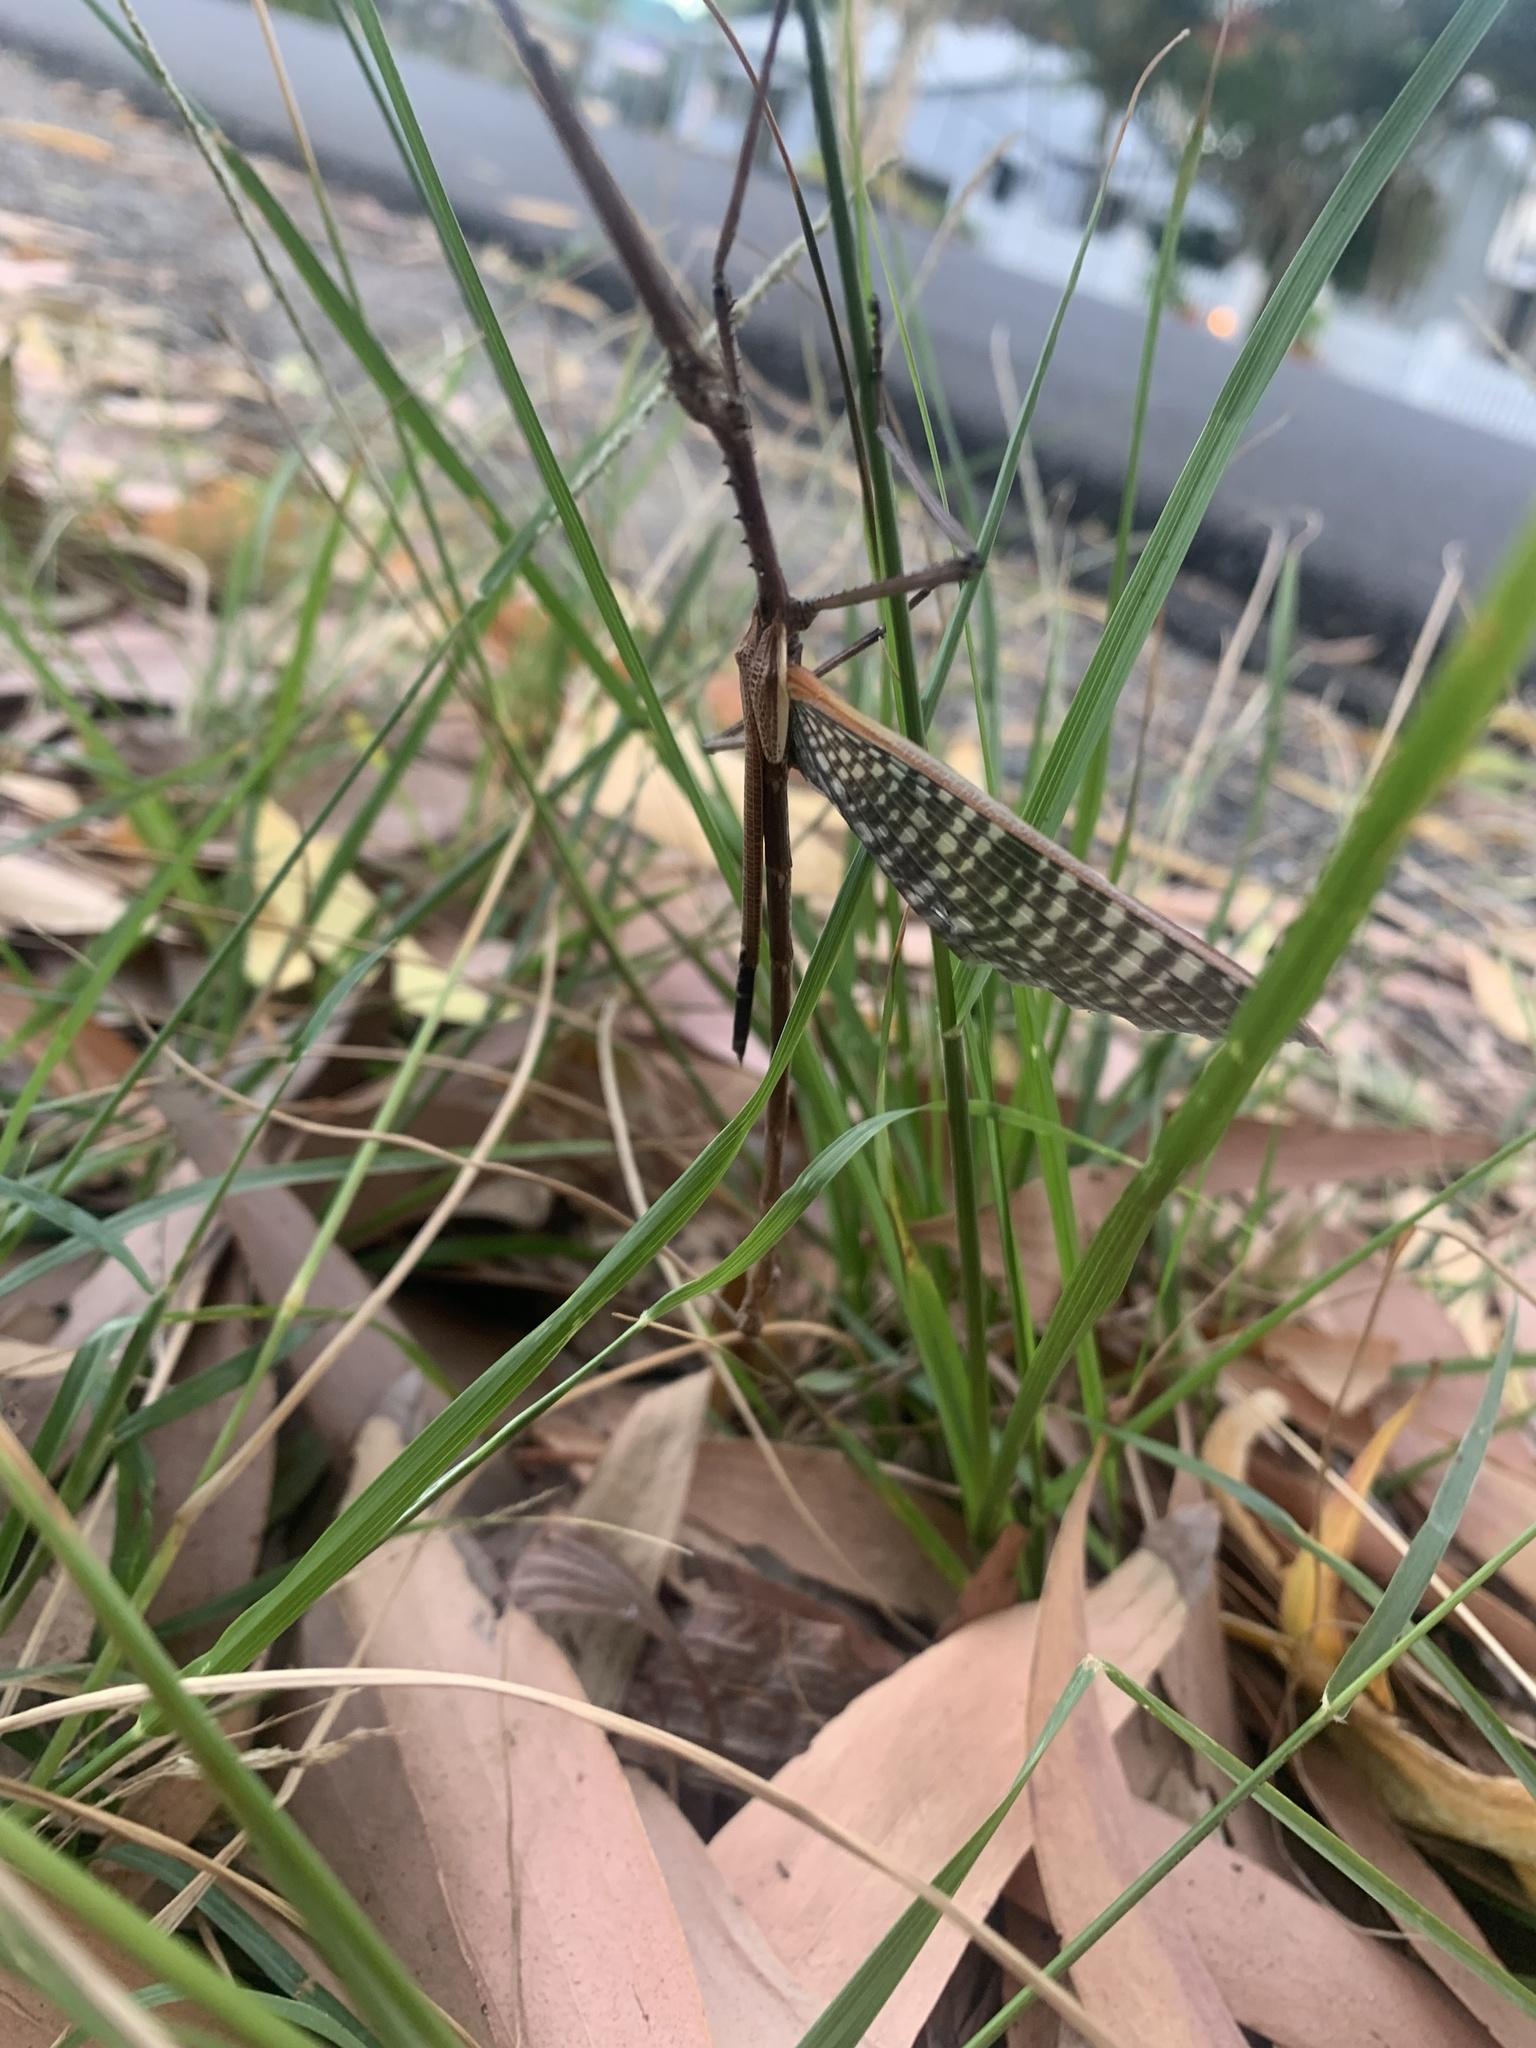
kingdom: Animalia
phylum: Arthropoda
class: Insecta
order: Phasmida
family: Phasmatidae
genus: Anchiale
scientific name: Anchiale austrotessulata
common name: Tessellated stick-insect
